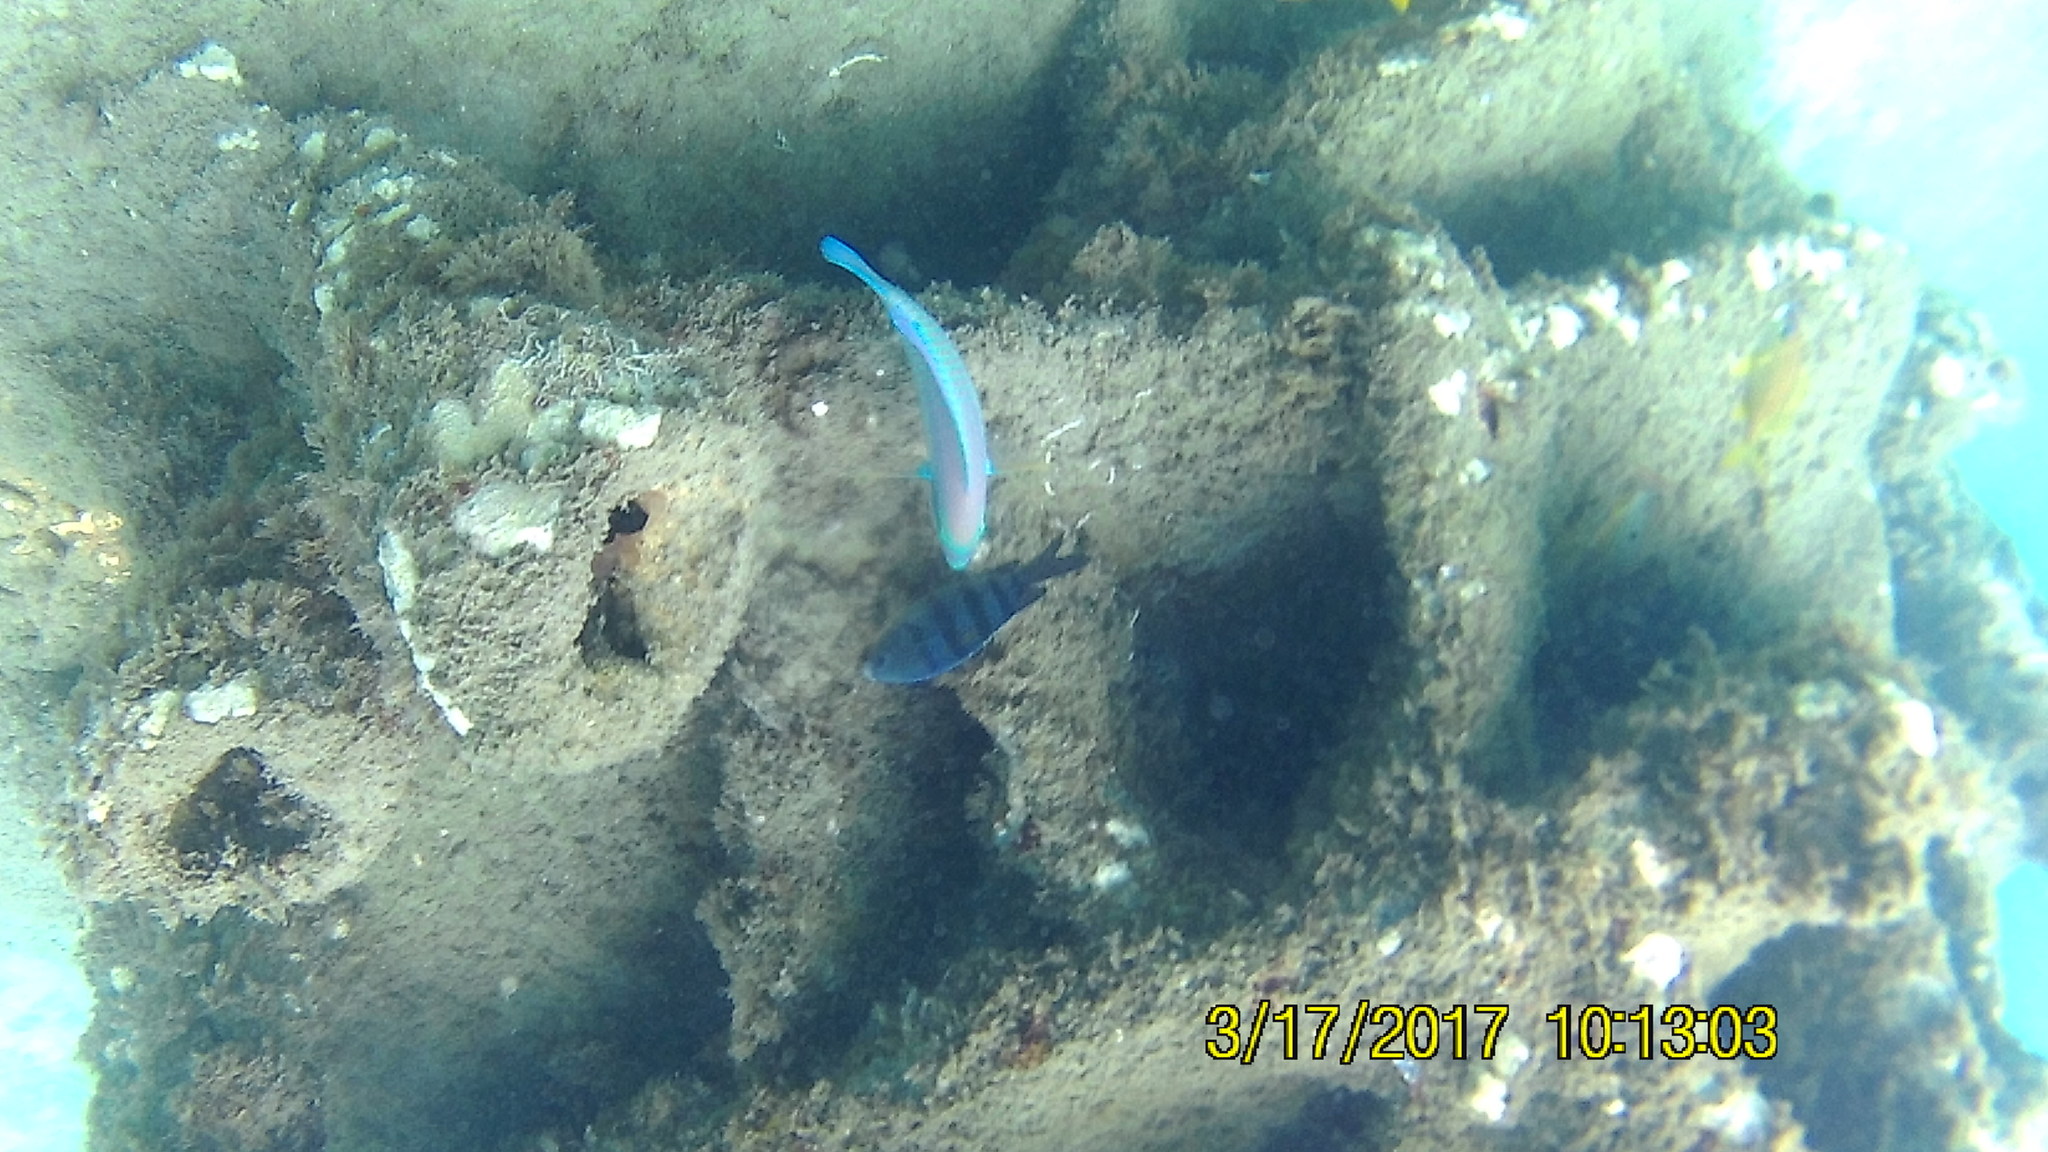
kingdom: Animalia
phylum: Chordata
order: Perciformes
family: Pomacentridae
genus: Abudefduf
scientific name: Abudefduf saxatilis
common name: Sergeant major
